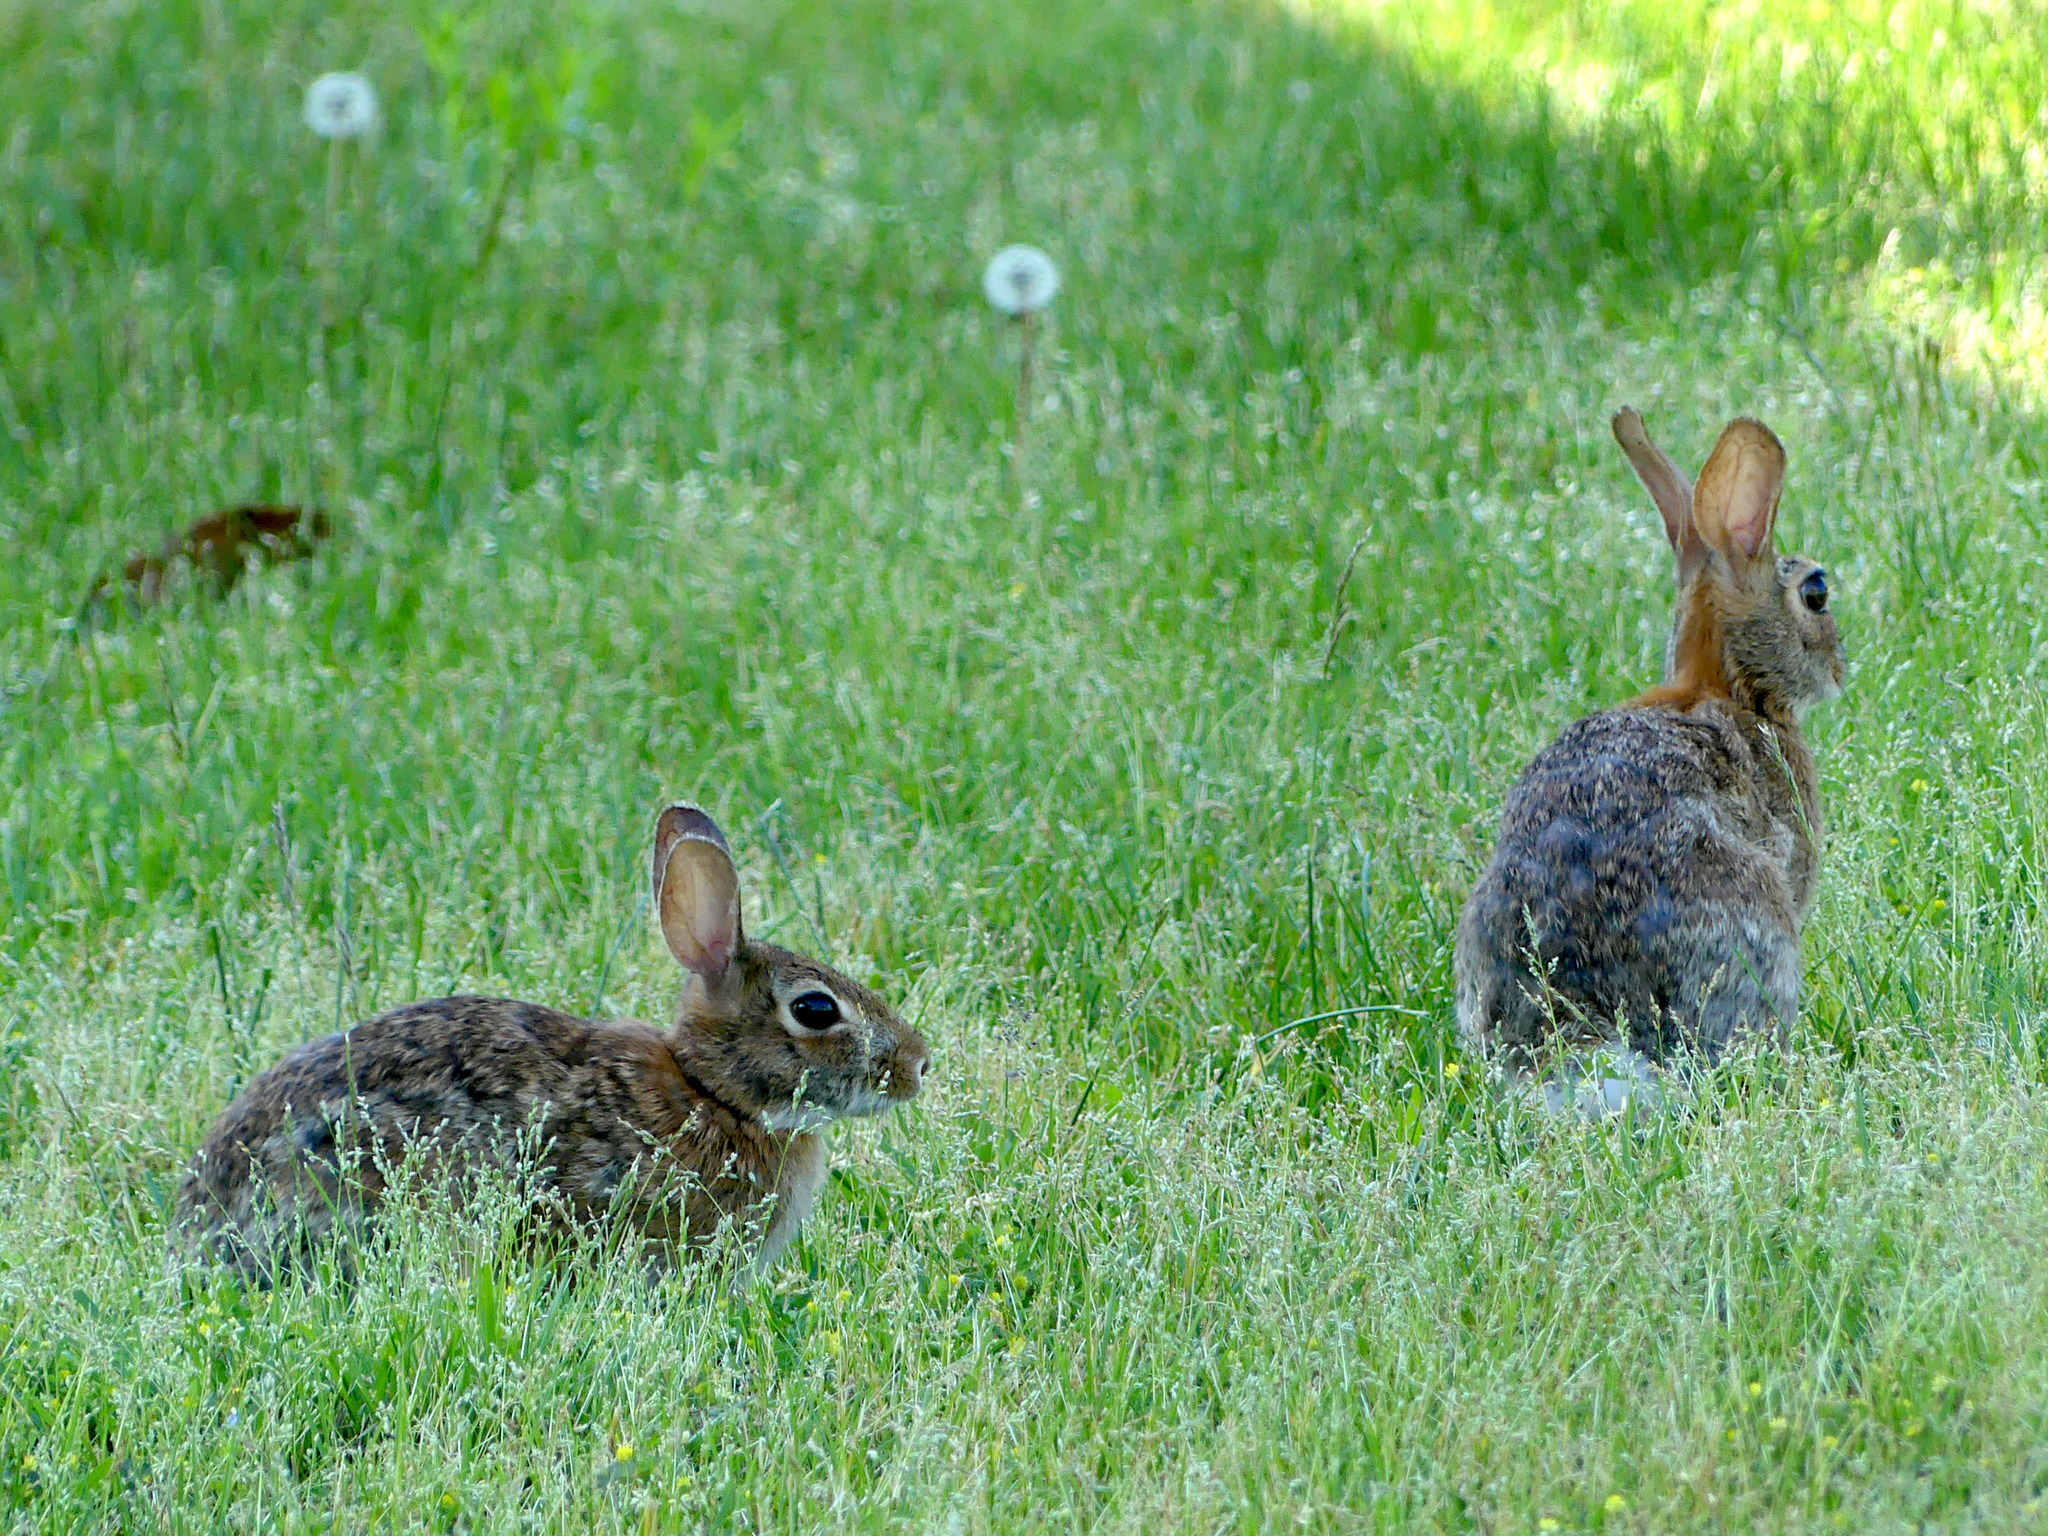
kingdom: Animalia
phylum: Chordata
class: Mammalia
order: Lagomorpha
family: Leporidae
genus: Sylvilagus
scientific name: Sylvilagus floridanus
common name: Eastern cottontail
